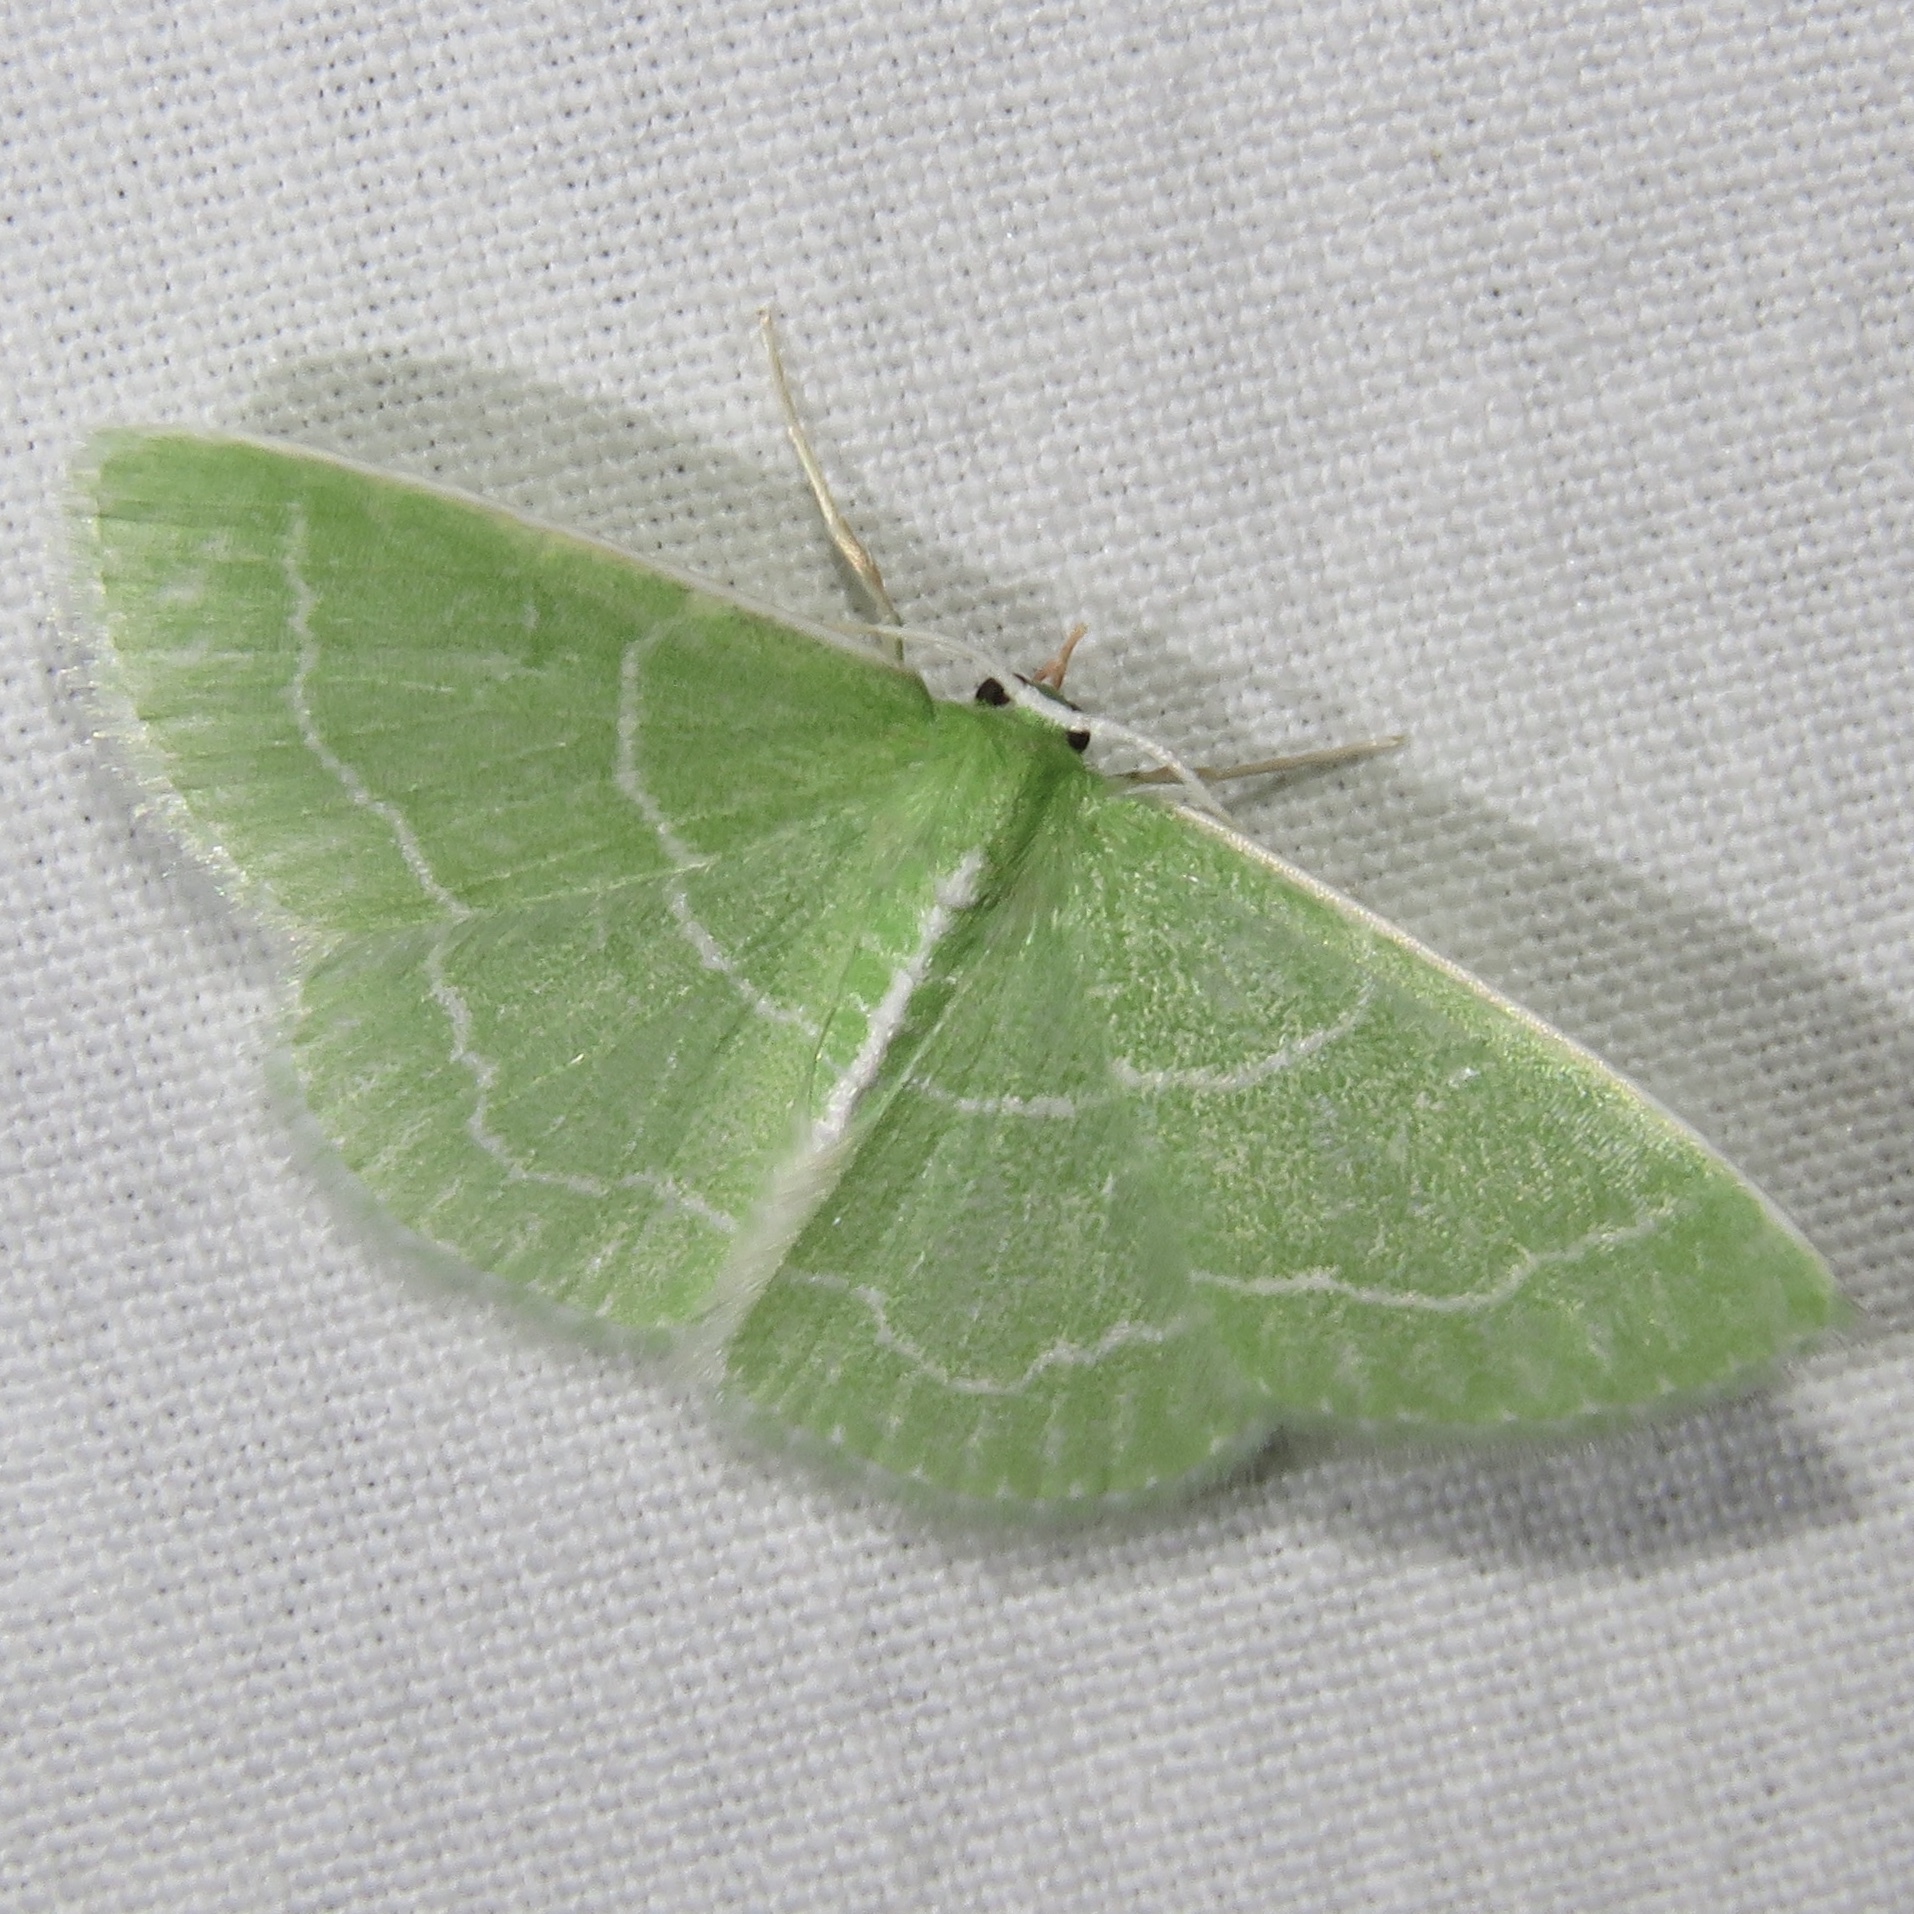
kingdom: Animalia
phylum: Arthropoda
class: Insecta
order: Lepidoptera
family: Geometridae
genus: Synchlora
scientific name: Synchlora aerata
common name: Wavy-lined emerald
